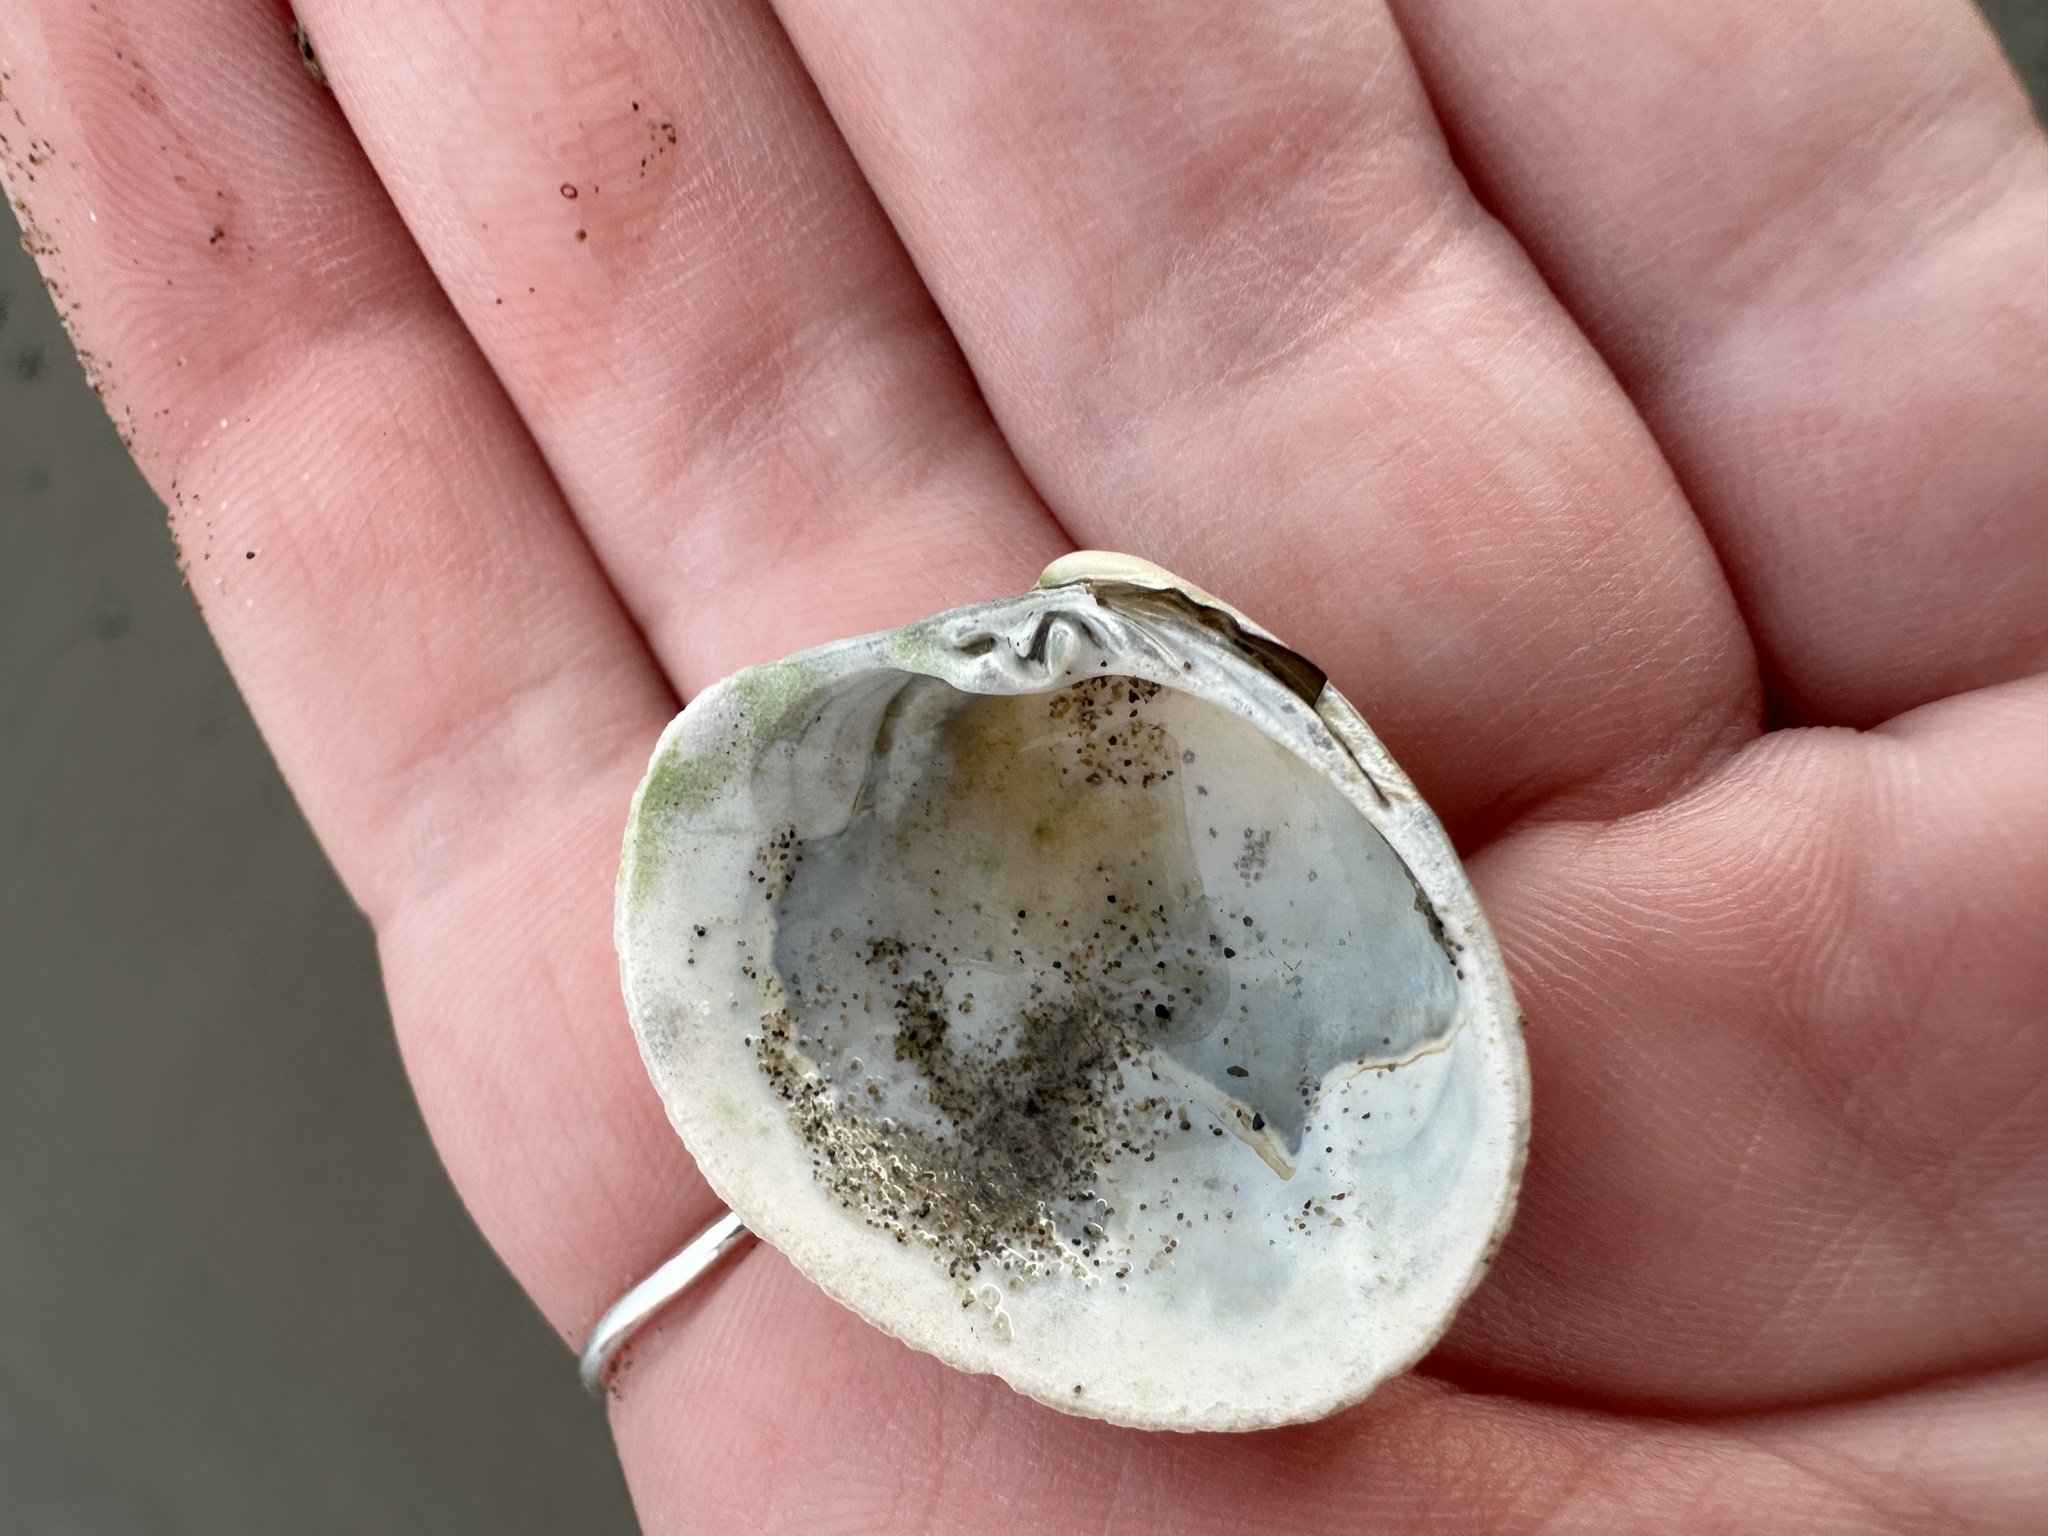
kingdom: Animalia
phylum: Mollusca
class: Bivalvia
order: Venerida
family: Veneridae
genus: Agriopoma
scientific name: Agriopoma morrhuanum
